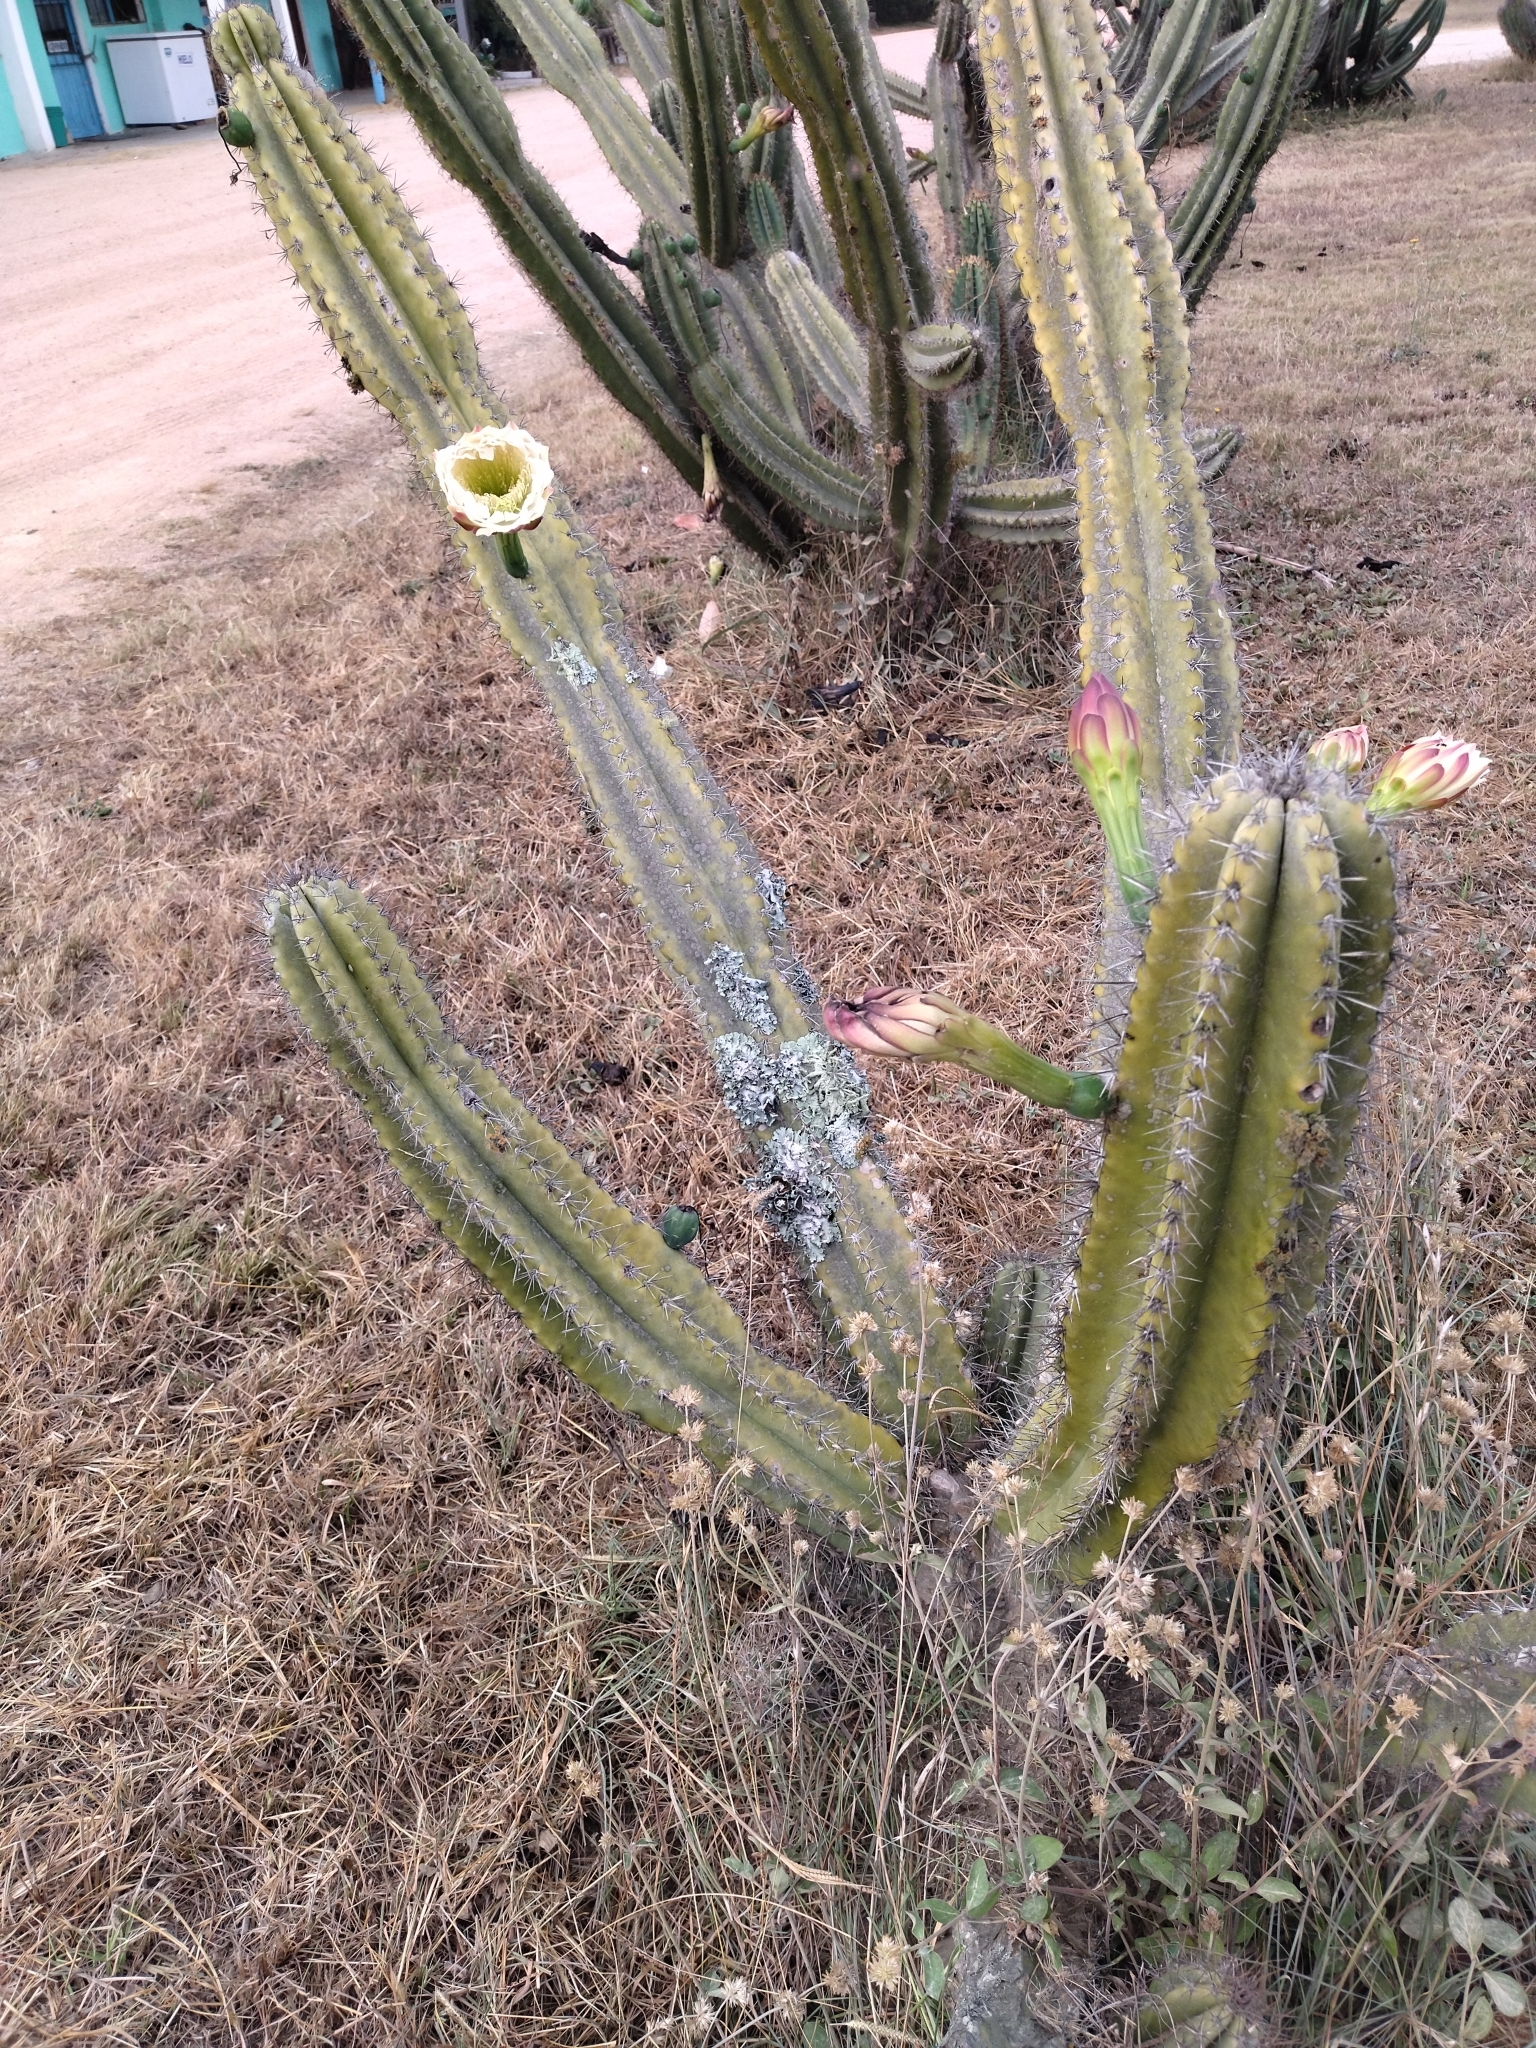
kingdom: Plantae
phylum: Tracheophyta
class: Magnoliopsida
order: Caryophyllales
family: Cactaceae
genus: Cereus
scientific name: Cereus hildmannianus
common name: Hedge cactus
